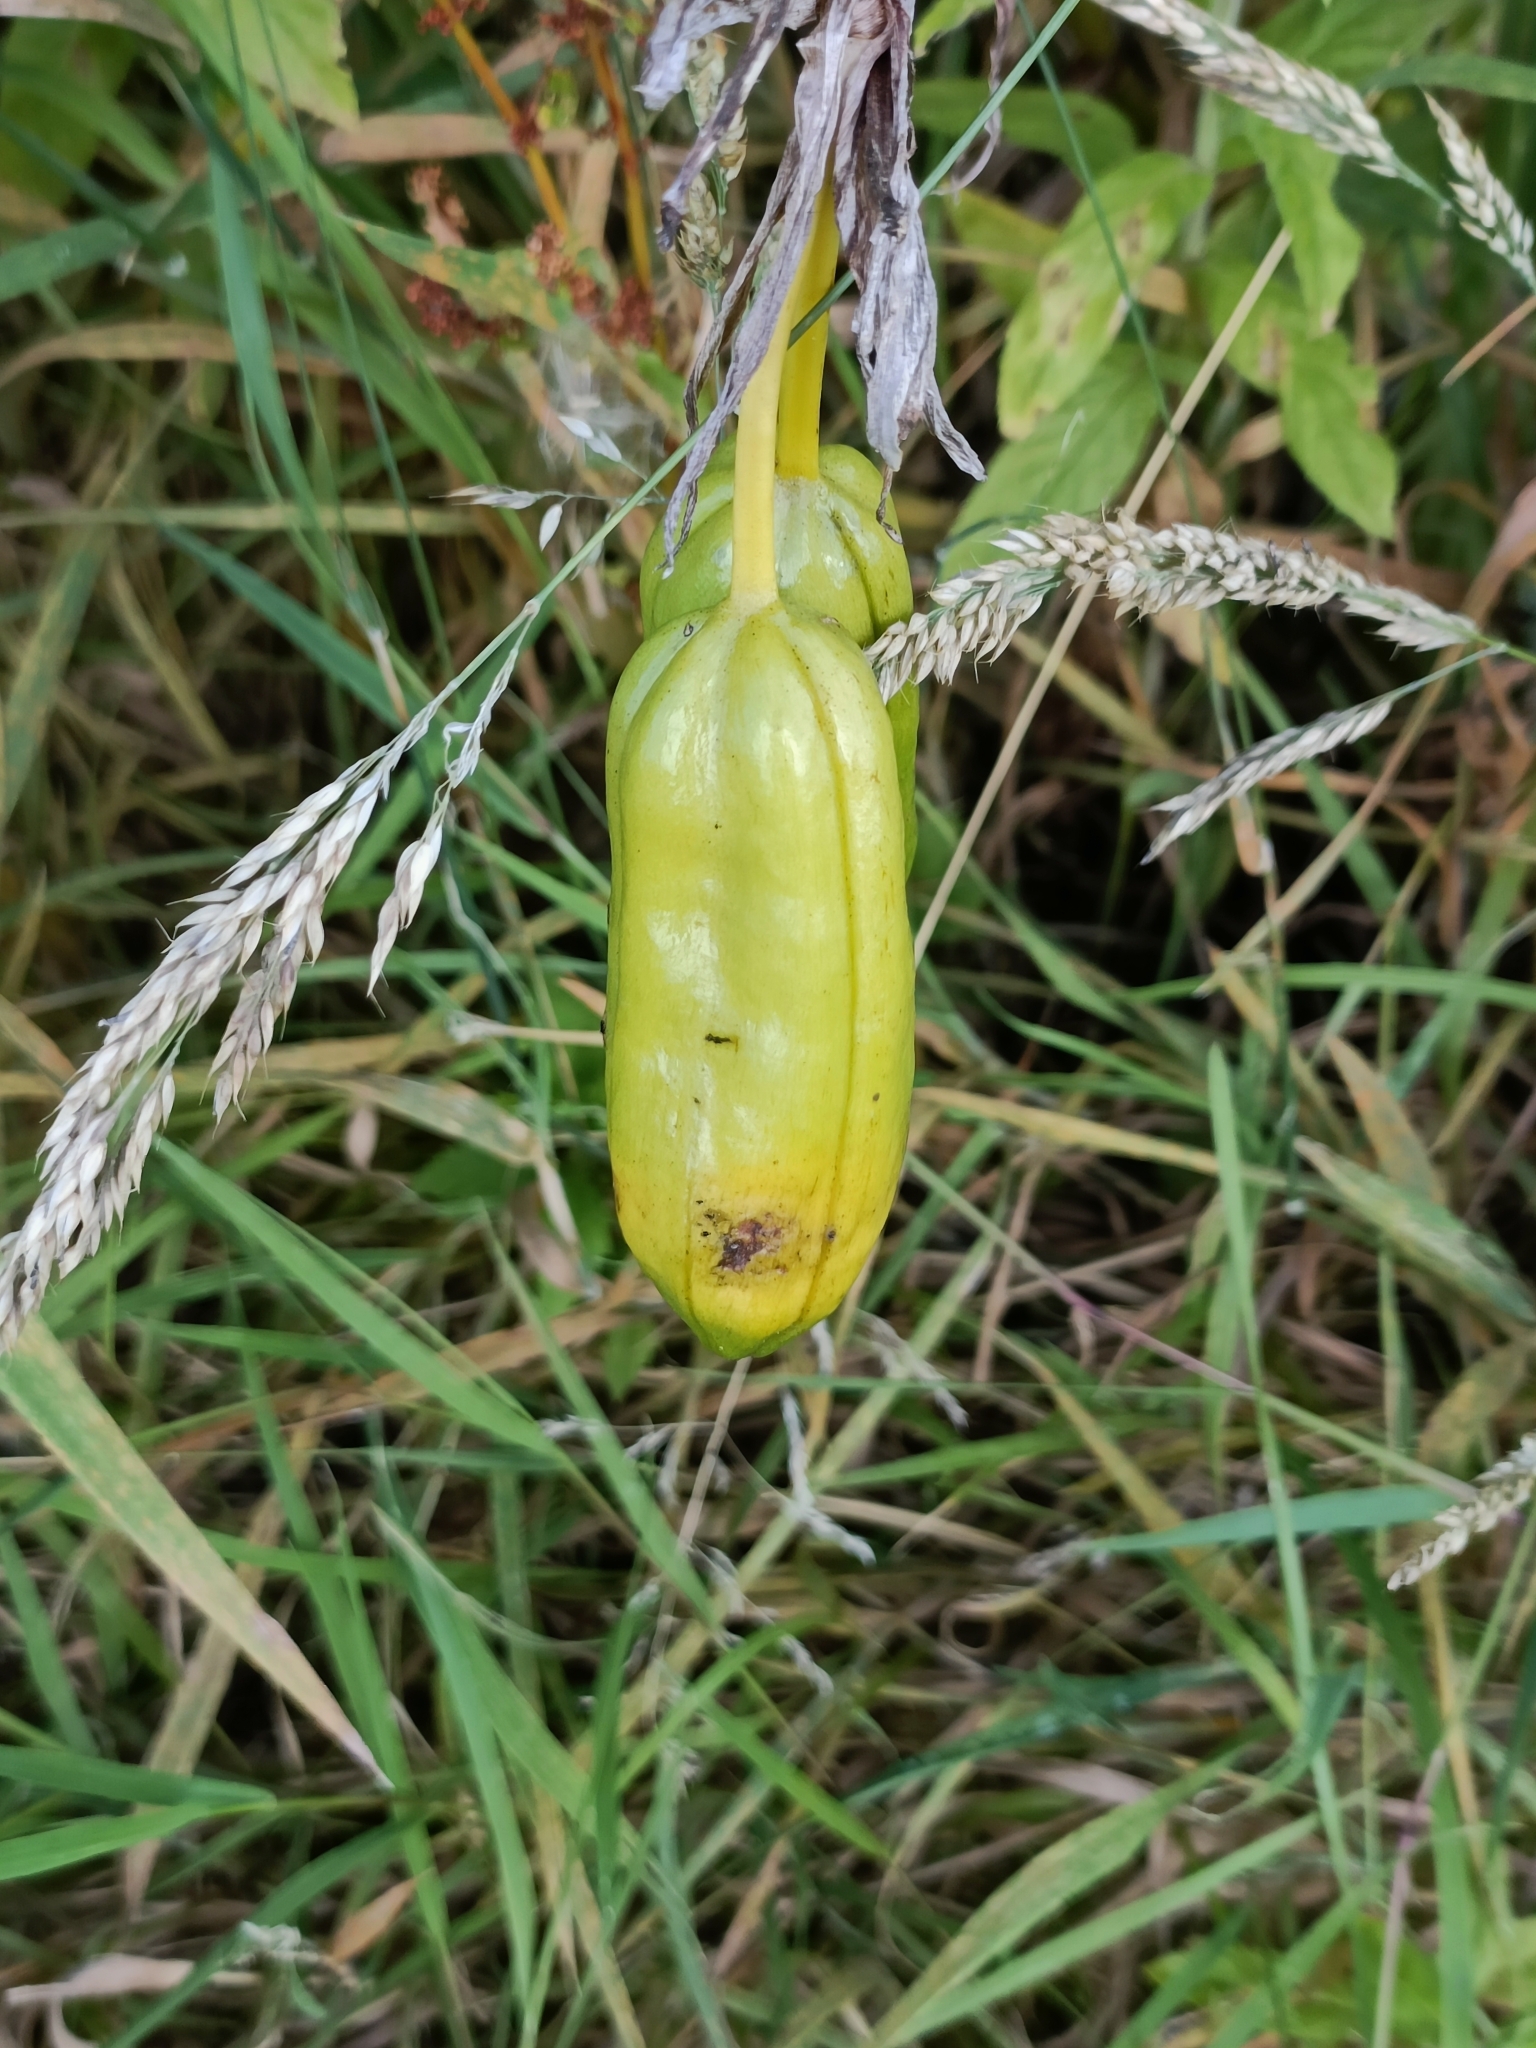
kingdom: Plantae
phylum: Tracheophyta
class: Liliopsida
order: Asparagales
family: Iridaceae
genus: Iris
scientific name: Iris pseudacorus
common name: Yellow flag
